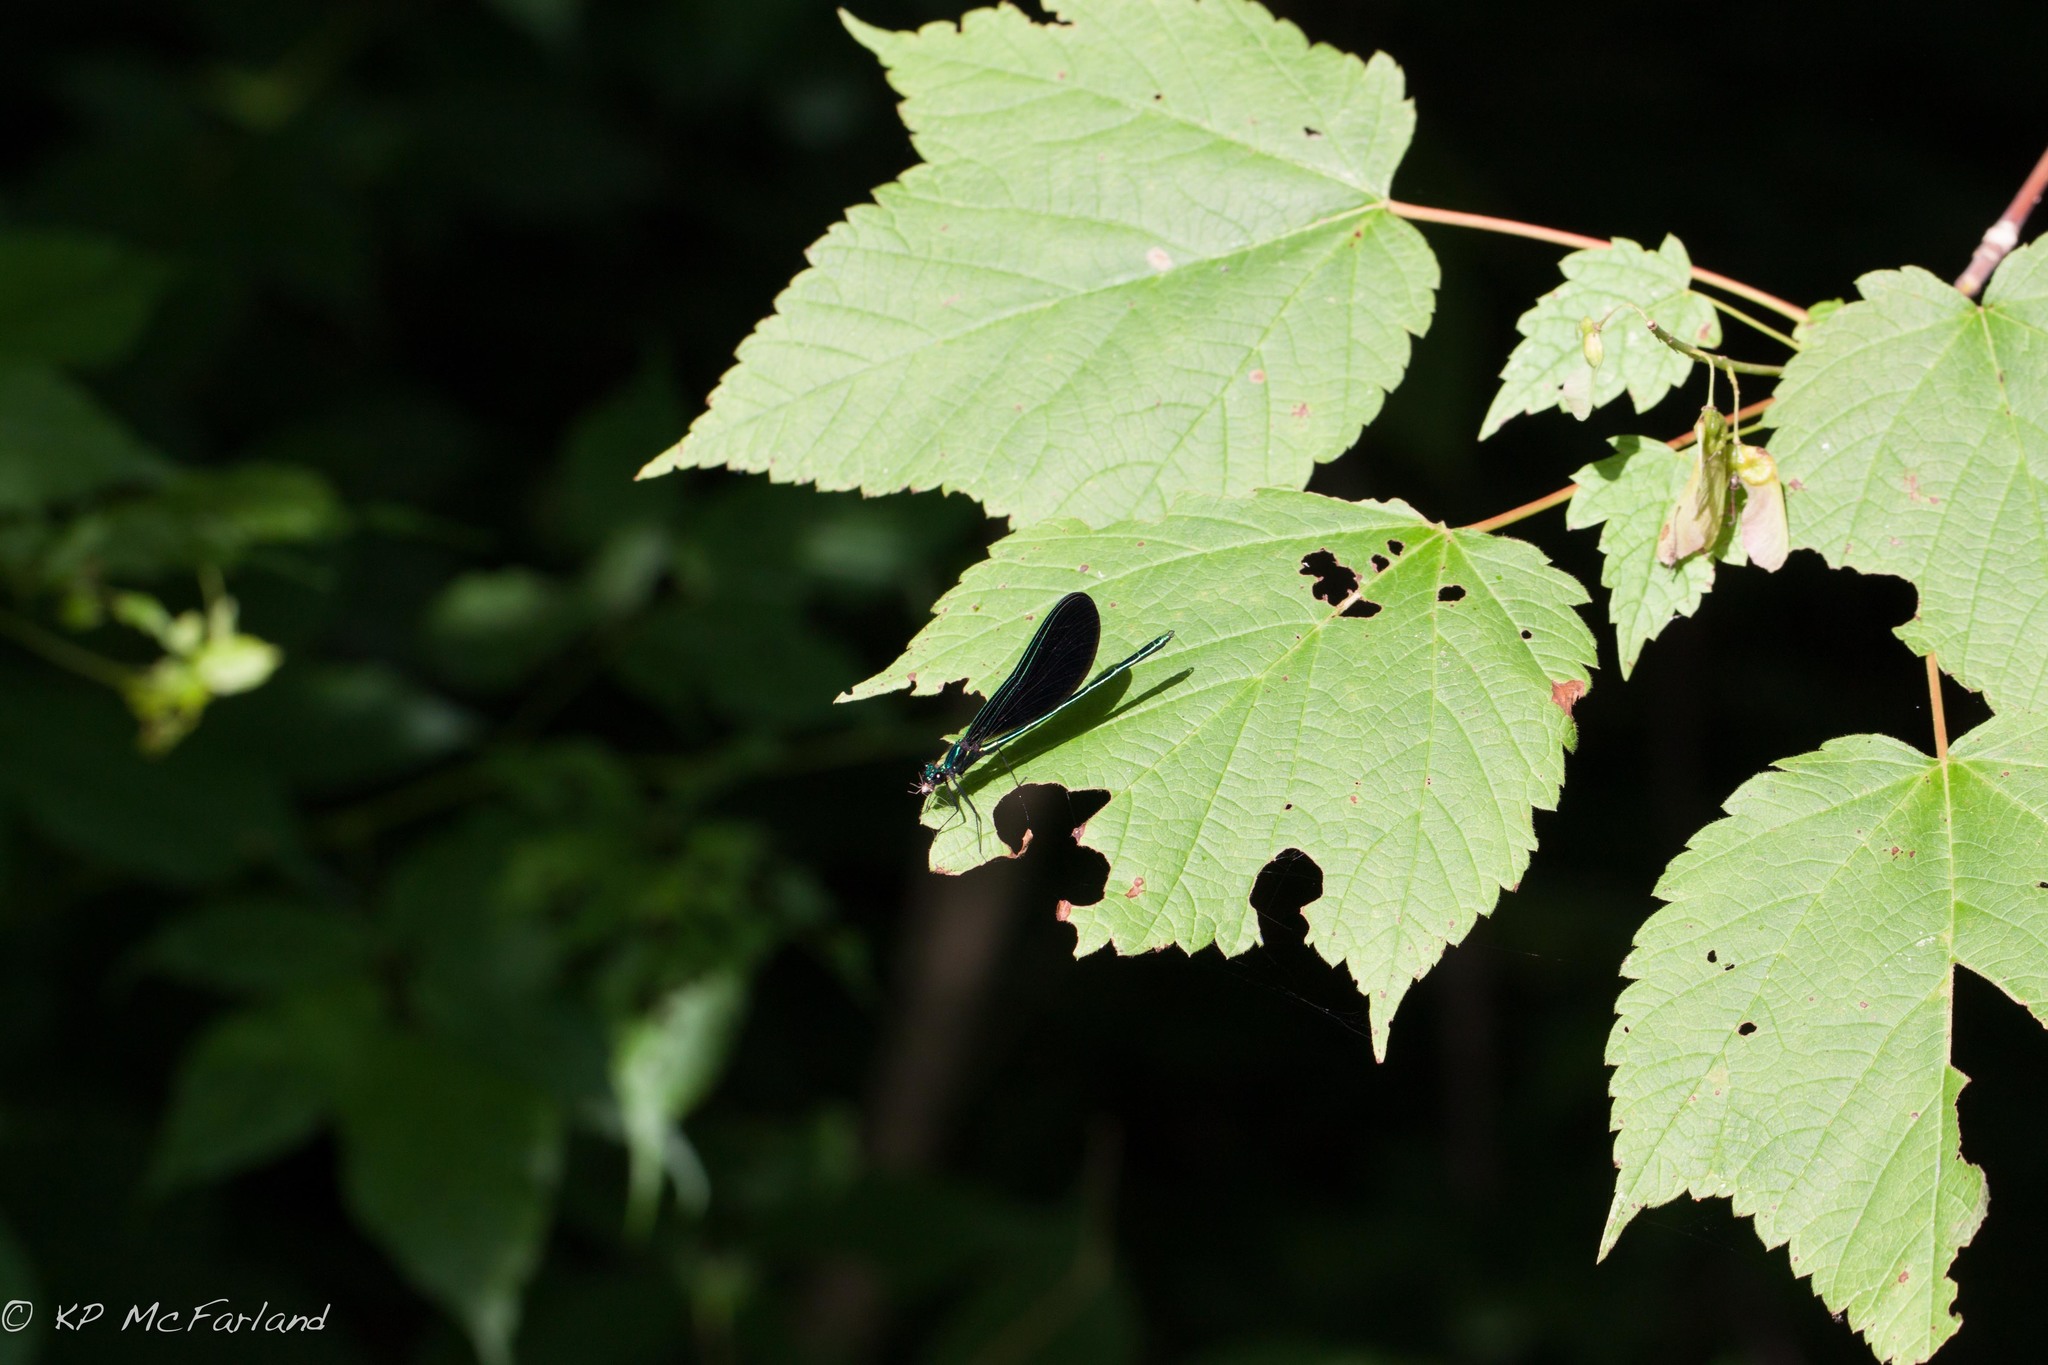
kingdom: Plantae
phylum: Tracheophyta
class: Magnoliopsida
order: Sapindales
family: Sapindaceae
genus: Acer
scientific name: Acer spicatum
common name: Mountain maple
